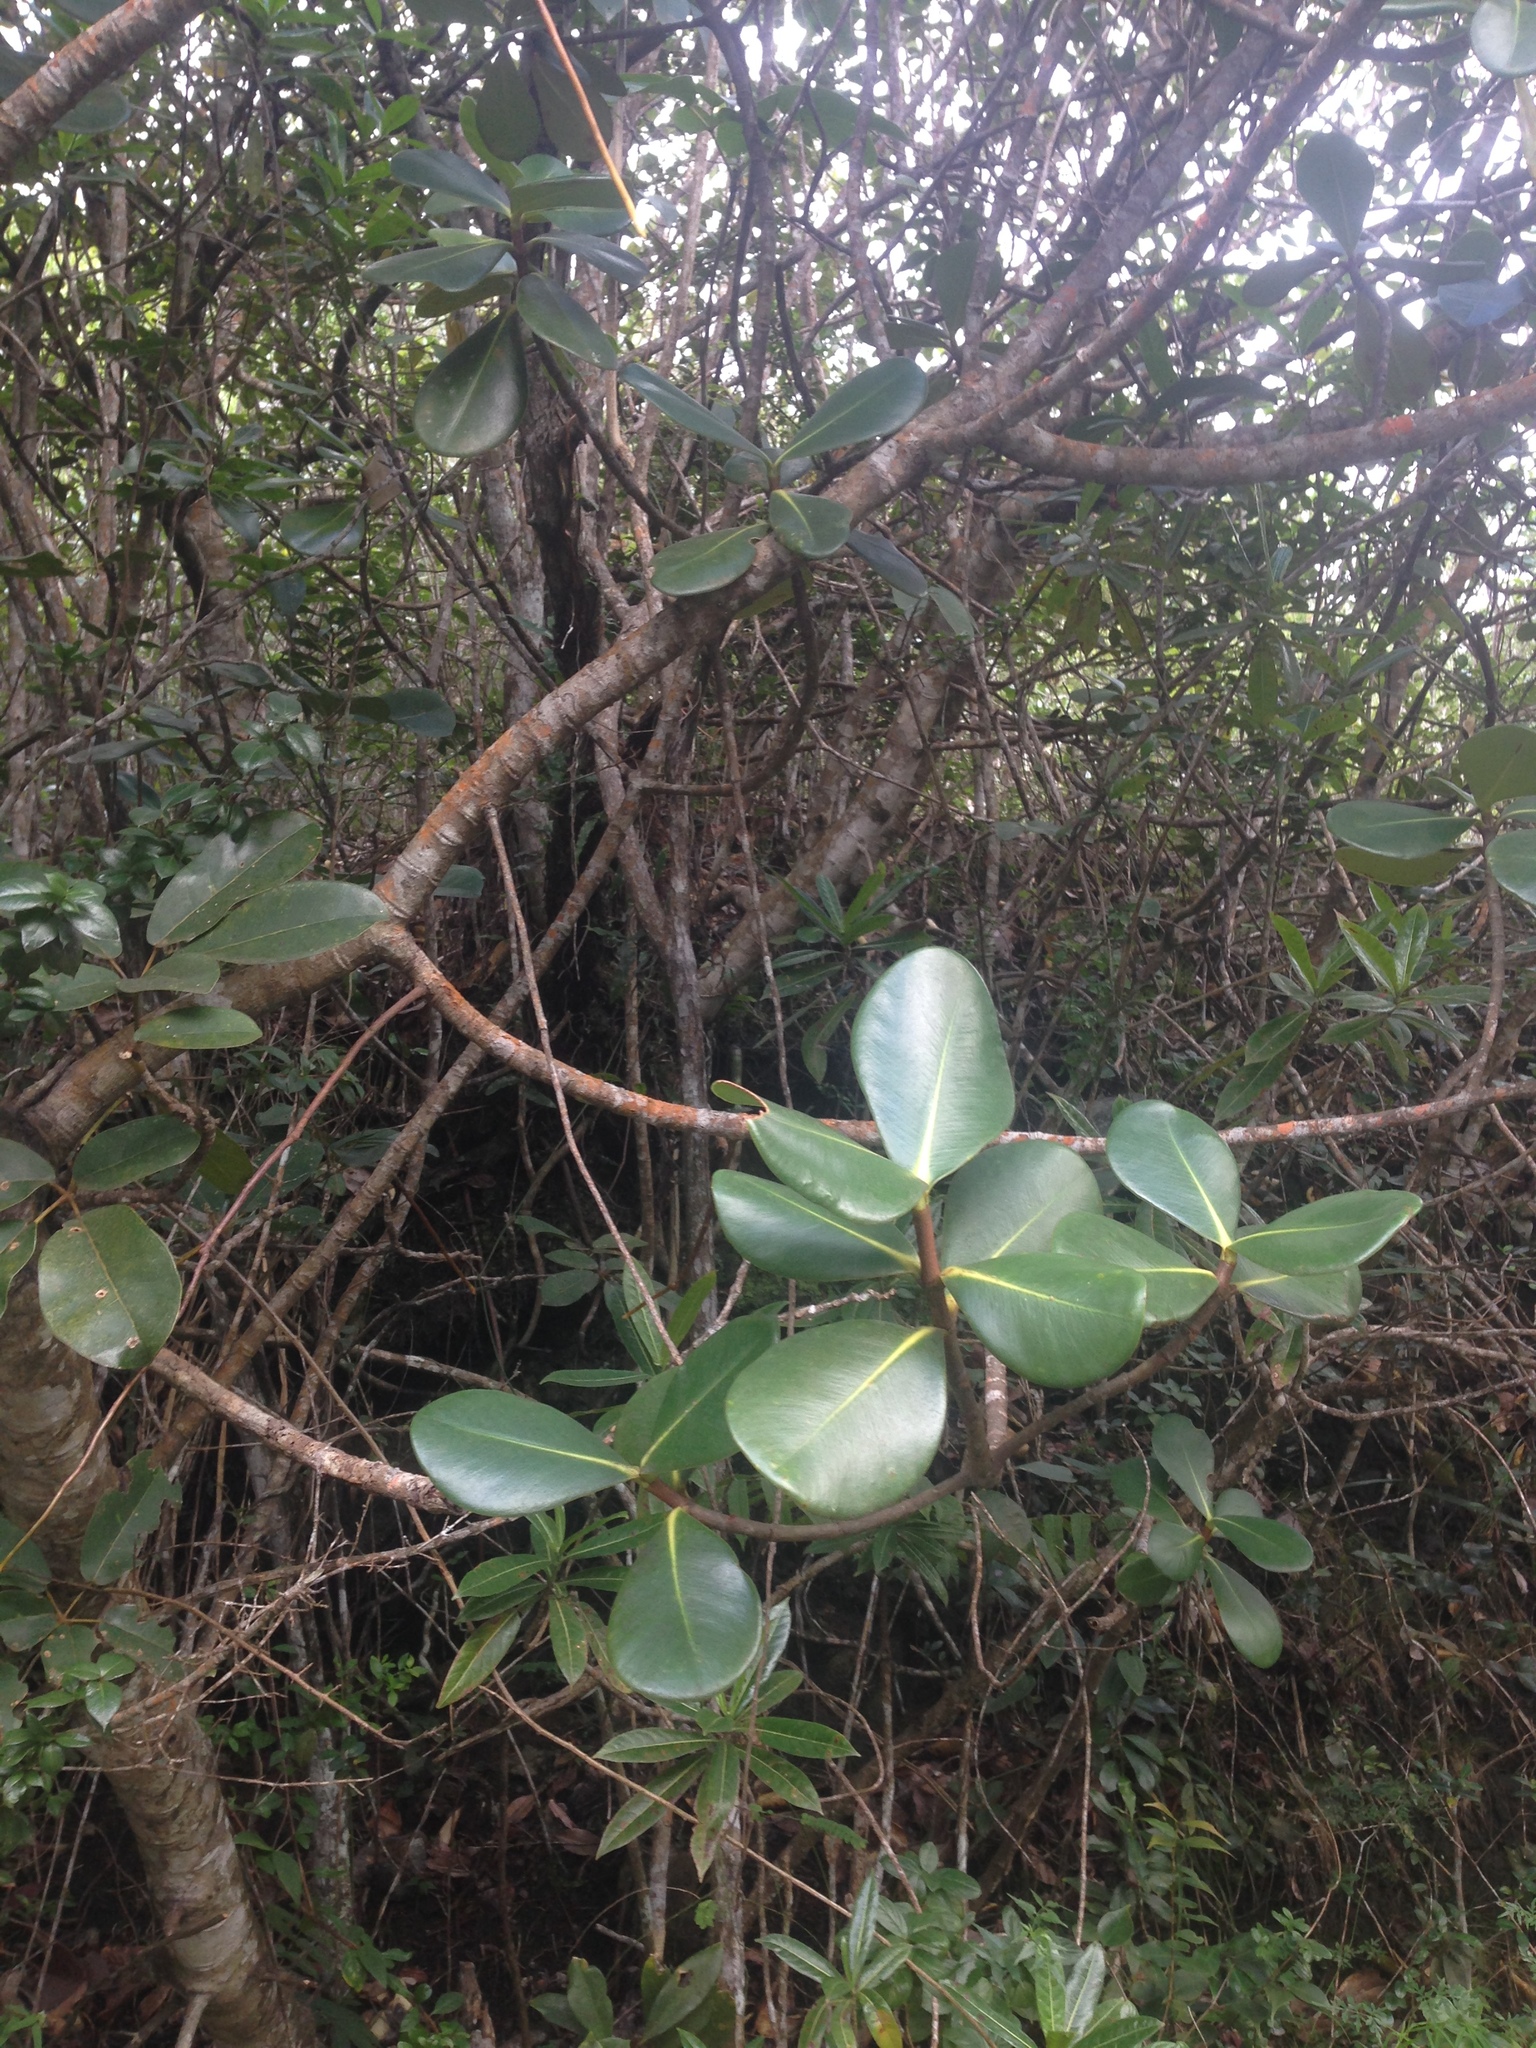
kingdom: Plantae
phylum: Tracheophyta
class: Magnoliopsida
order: Malpighiales
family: Clusiaceae
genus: Clusia
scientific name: Clusia clusioides
